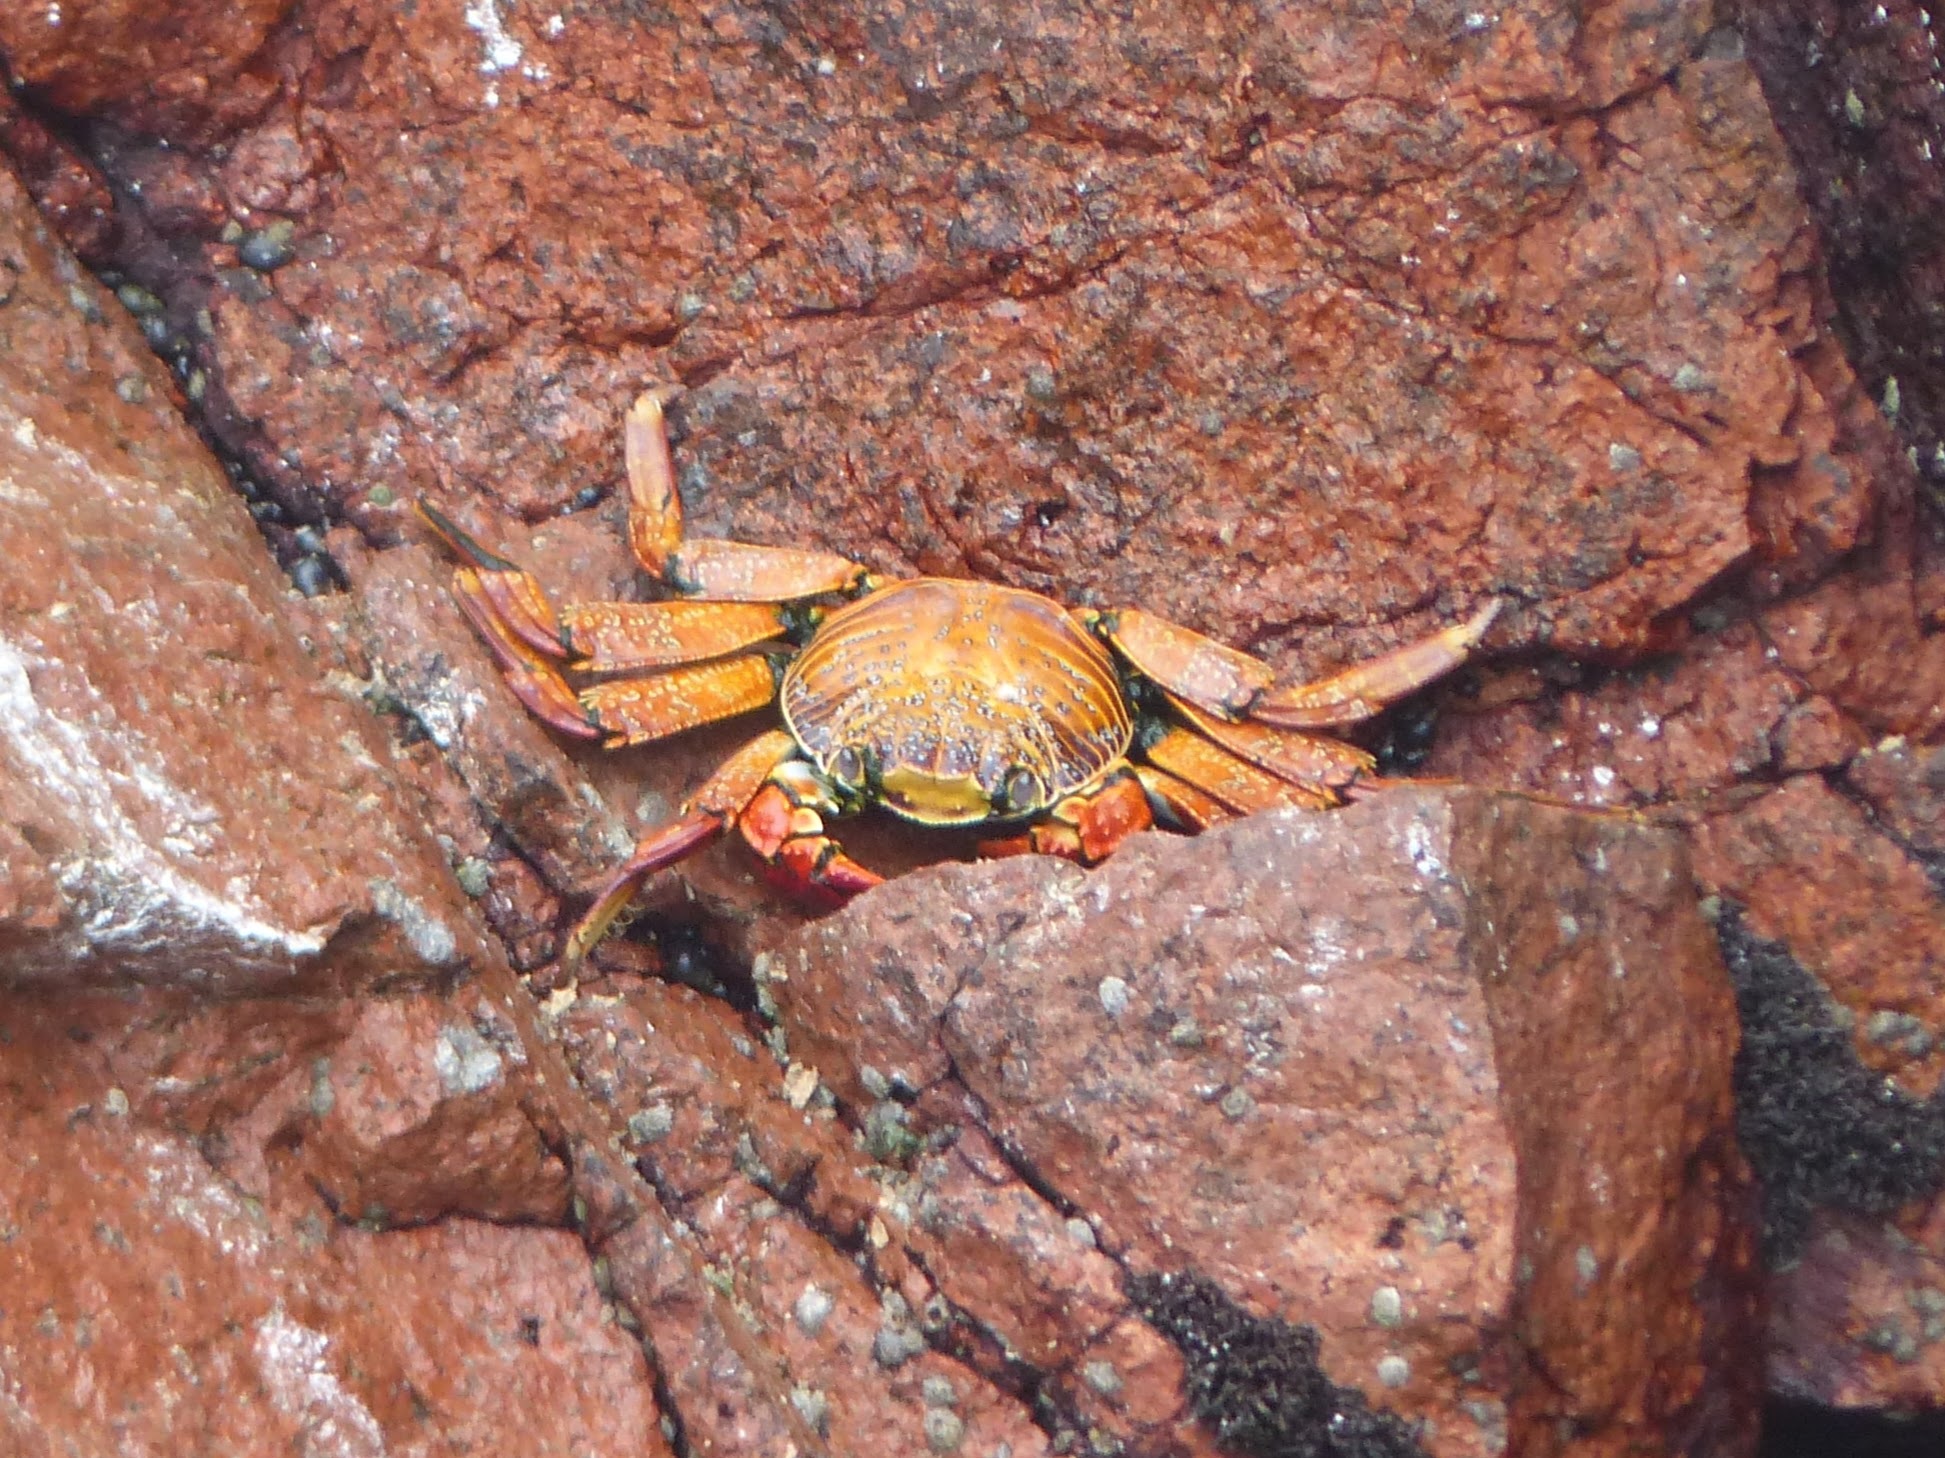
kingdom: Animalia
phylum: Arthropoda
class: Malacostraca
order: Decapoda
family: Grapsidae
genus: Grapsus
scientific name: Grapsus grapsus
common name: Sally lightfoot
